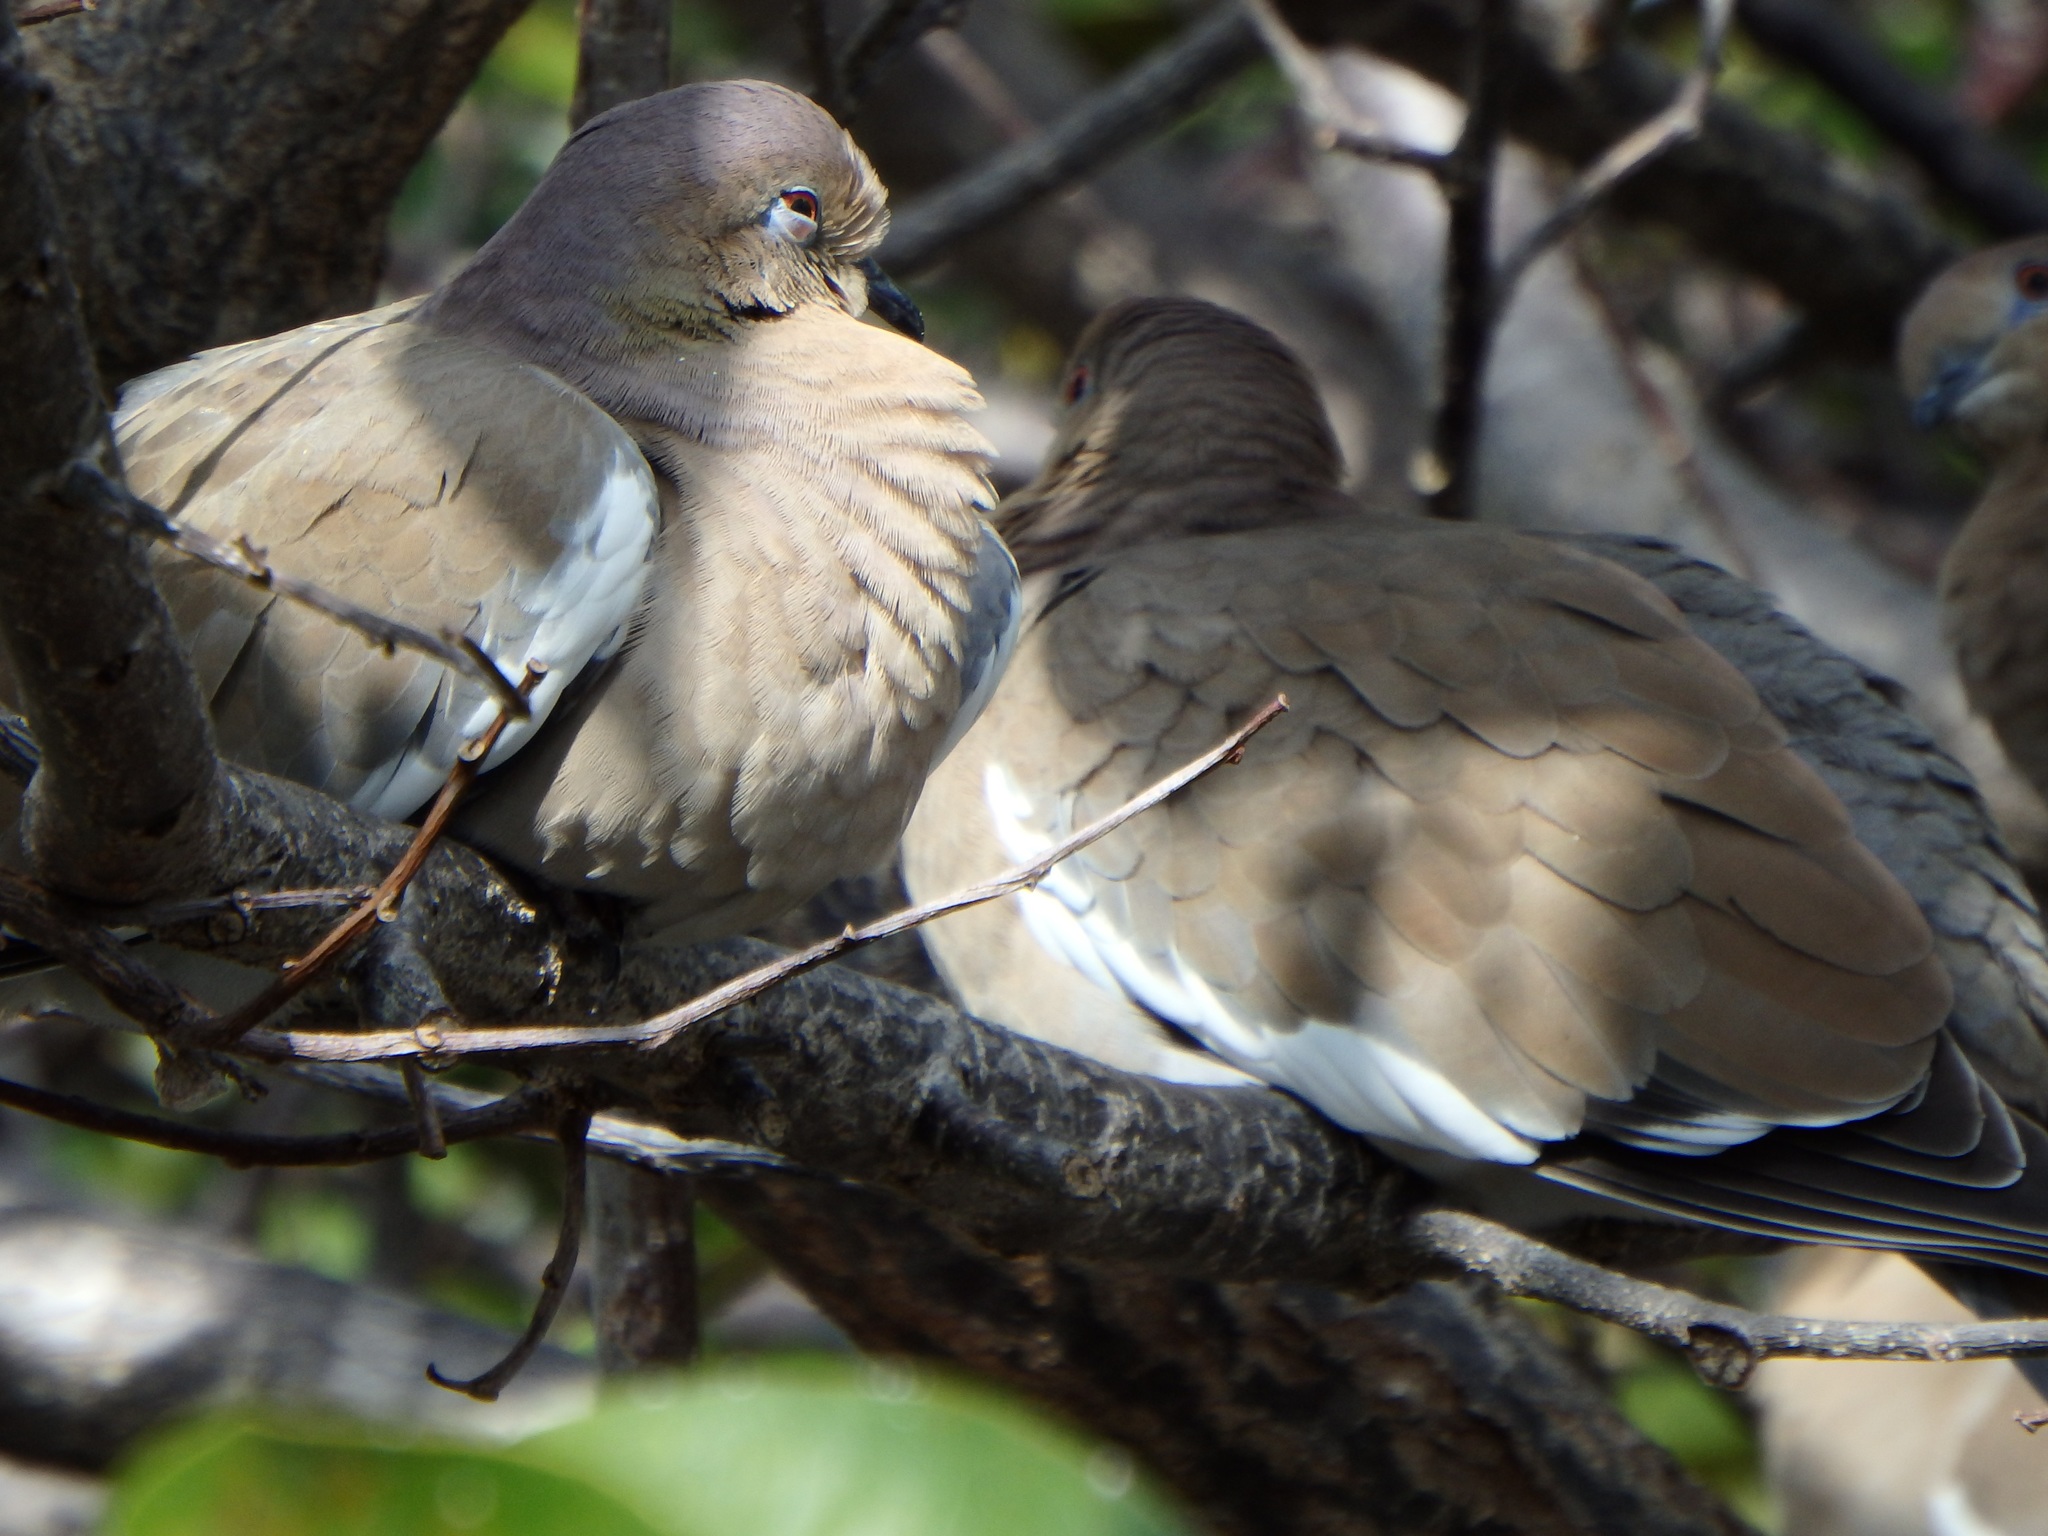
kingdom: Animalia
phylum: Chordata
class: Aves
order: Columbiformes
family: Columbidae
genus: Zenaida
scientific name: Zenaida asiatica
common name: White-winged dove
